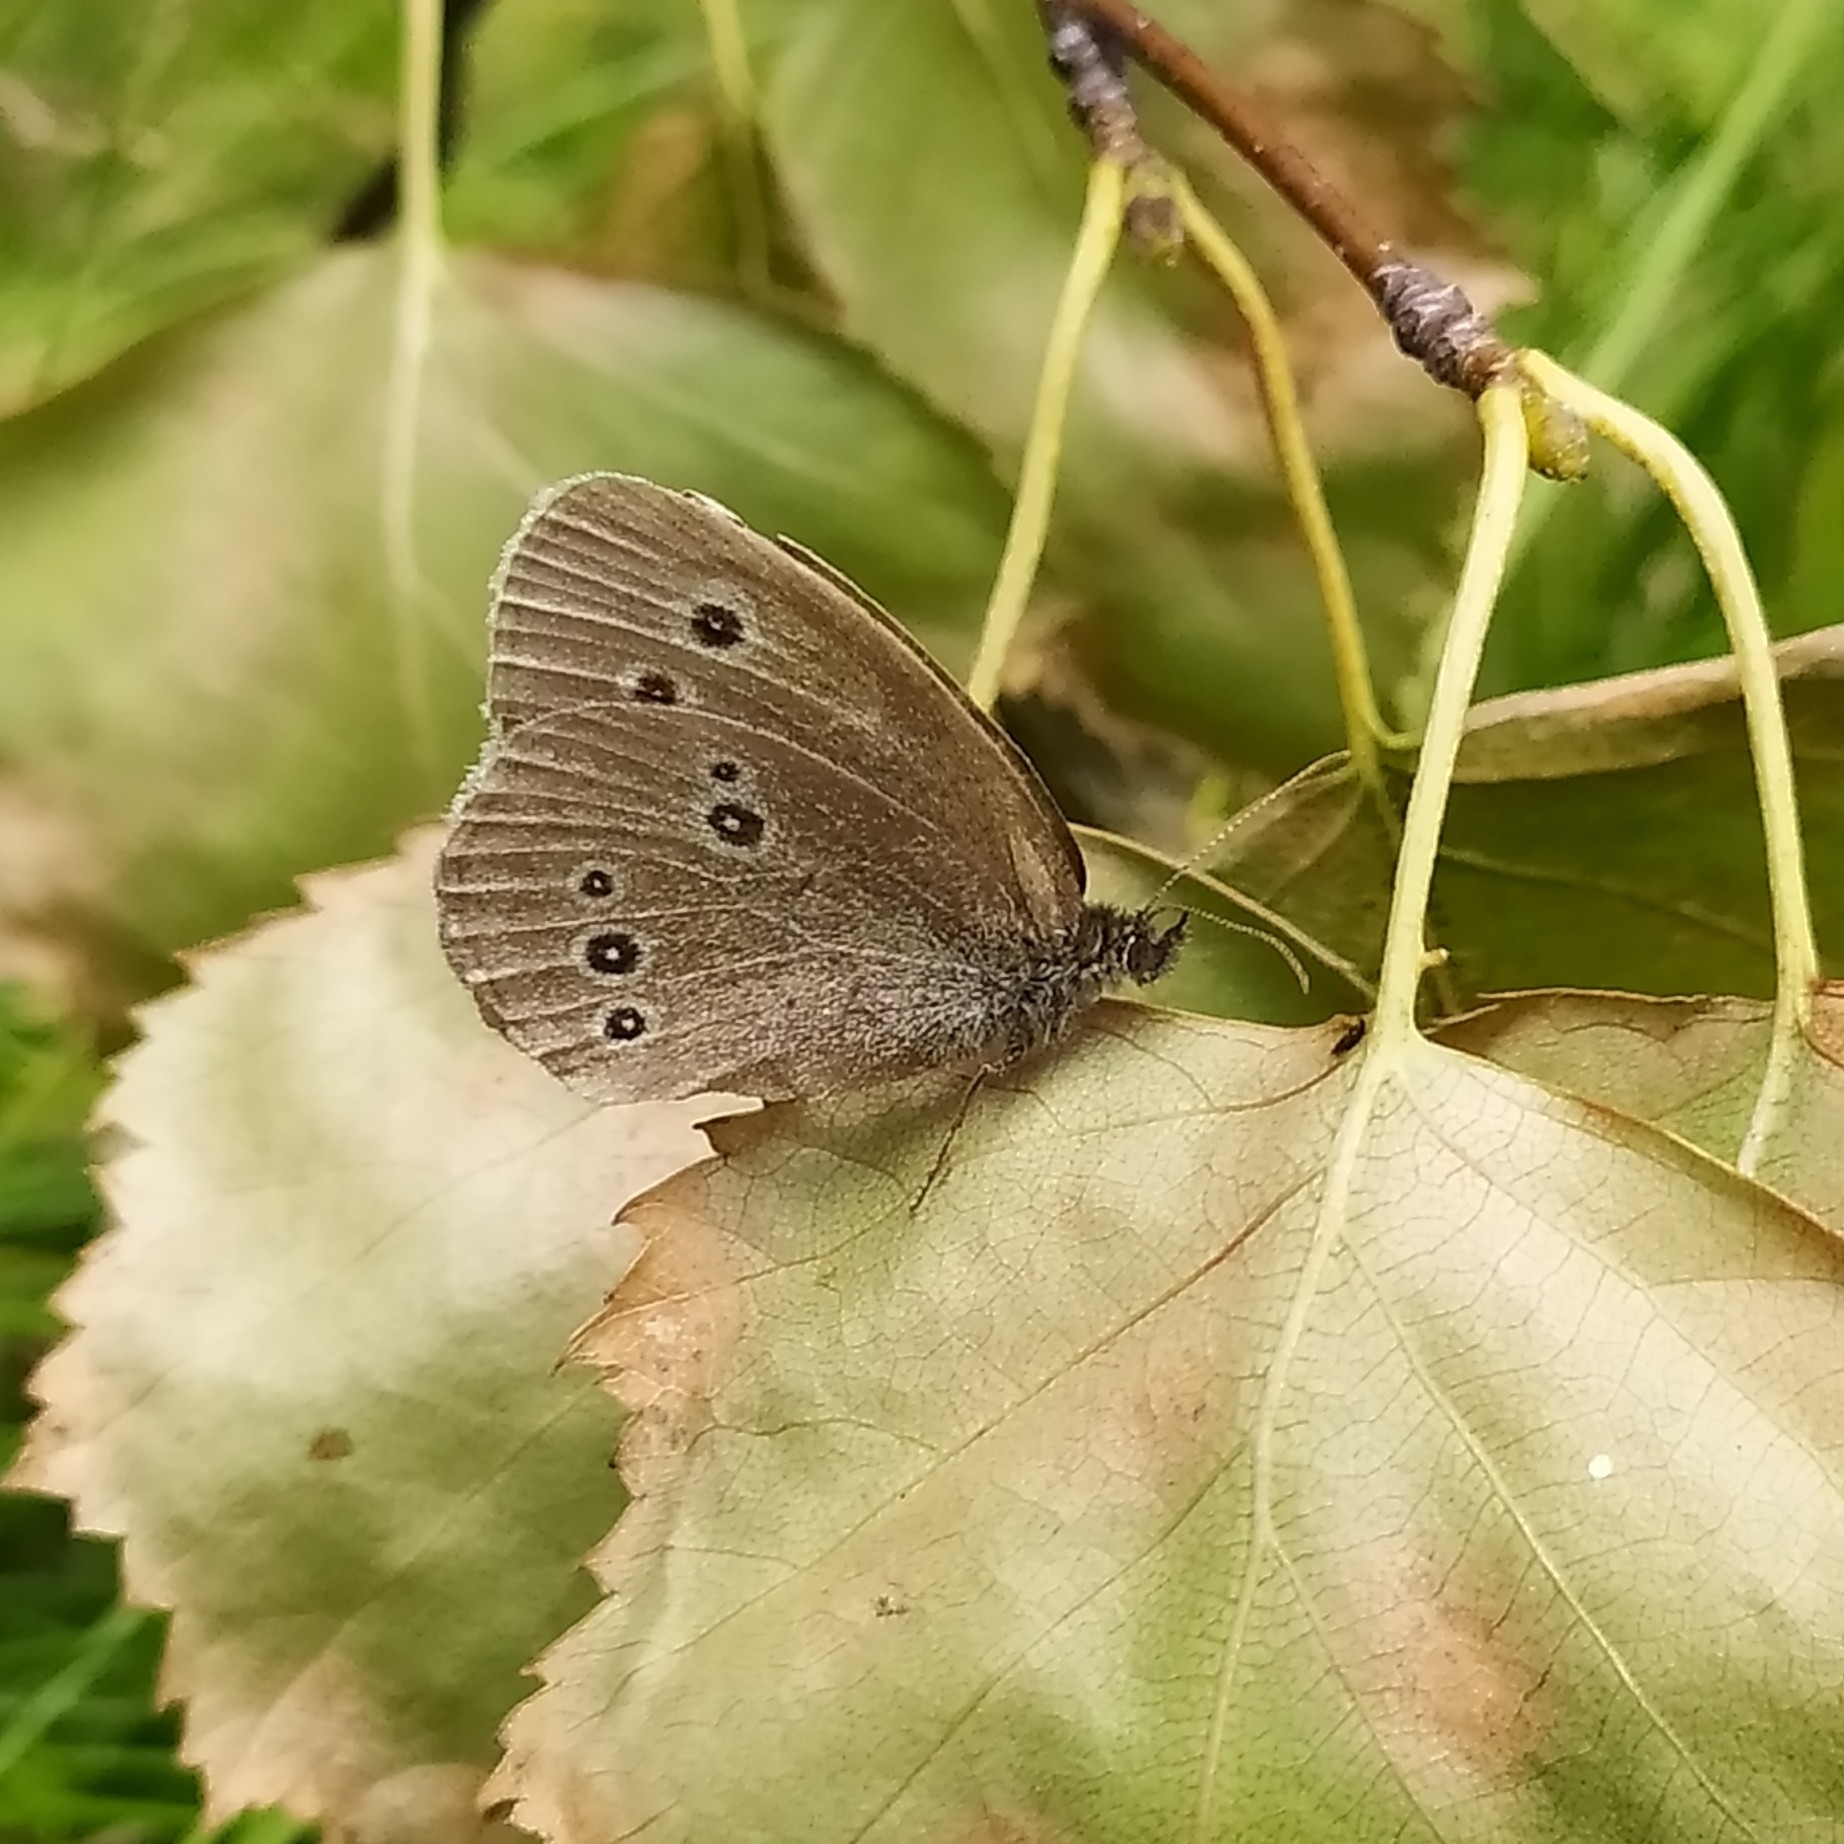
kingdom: Animalia
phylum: Arthropoda
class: Insecta
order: Lepidoptera
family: Nymphalidae
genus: Aphantopus
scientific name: Aphantopus hyperantus
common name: Ringlet
